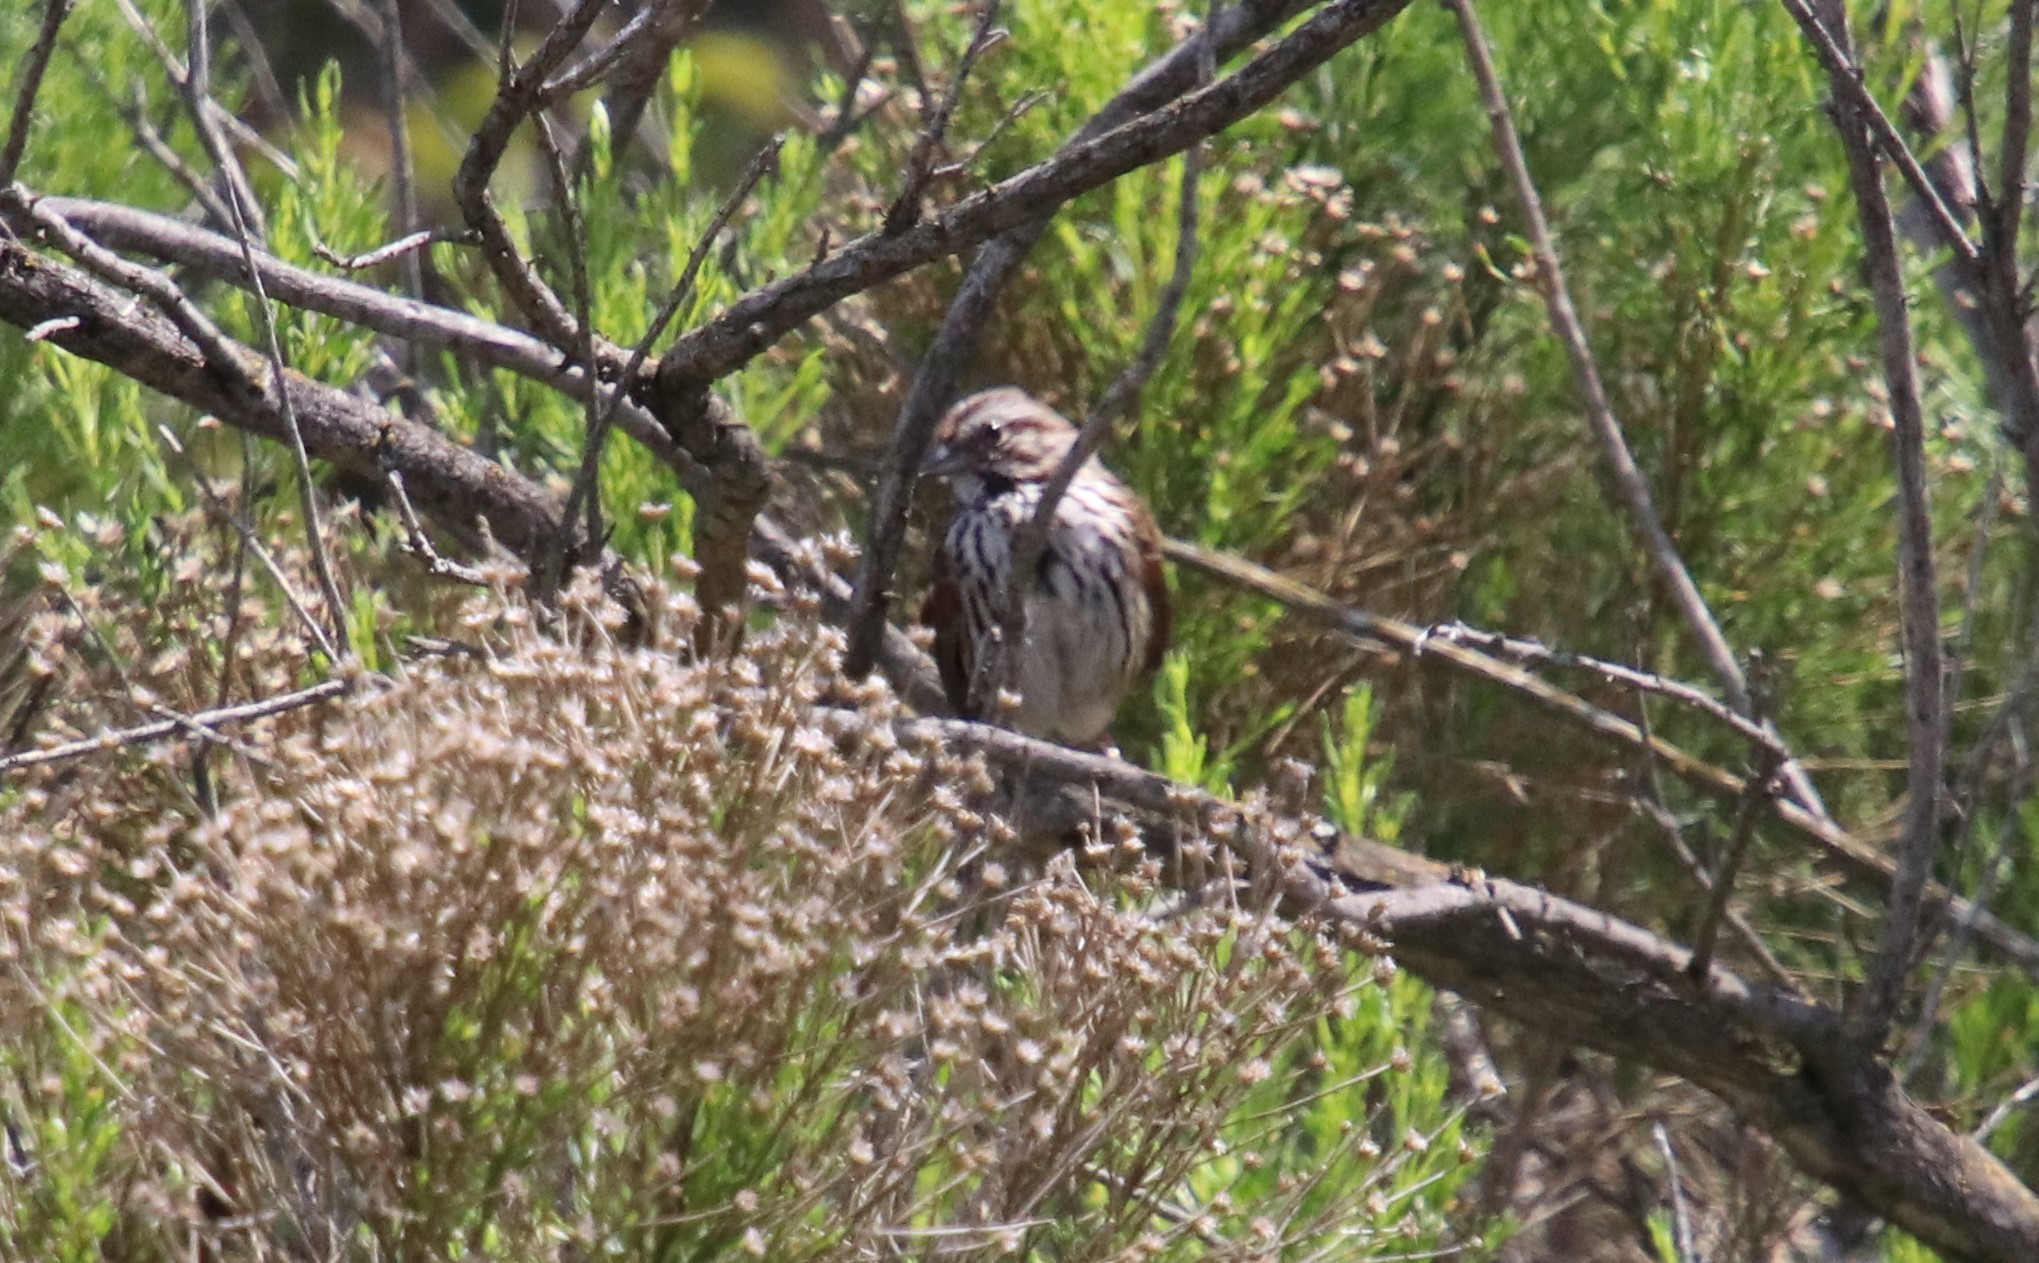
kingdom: Animalia
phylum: Chordata
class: Aves
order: Passeriformes
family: Passerellidae
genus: Melospiza
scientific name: Melospiza melodia
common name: Song sparrow
